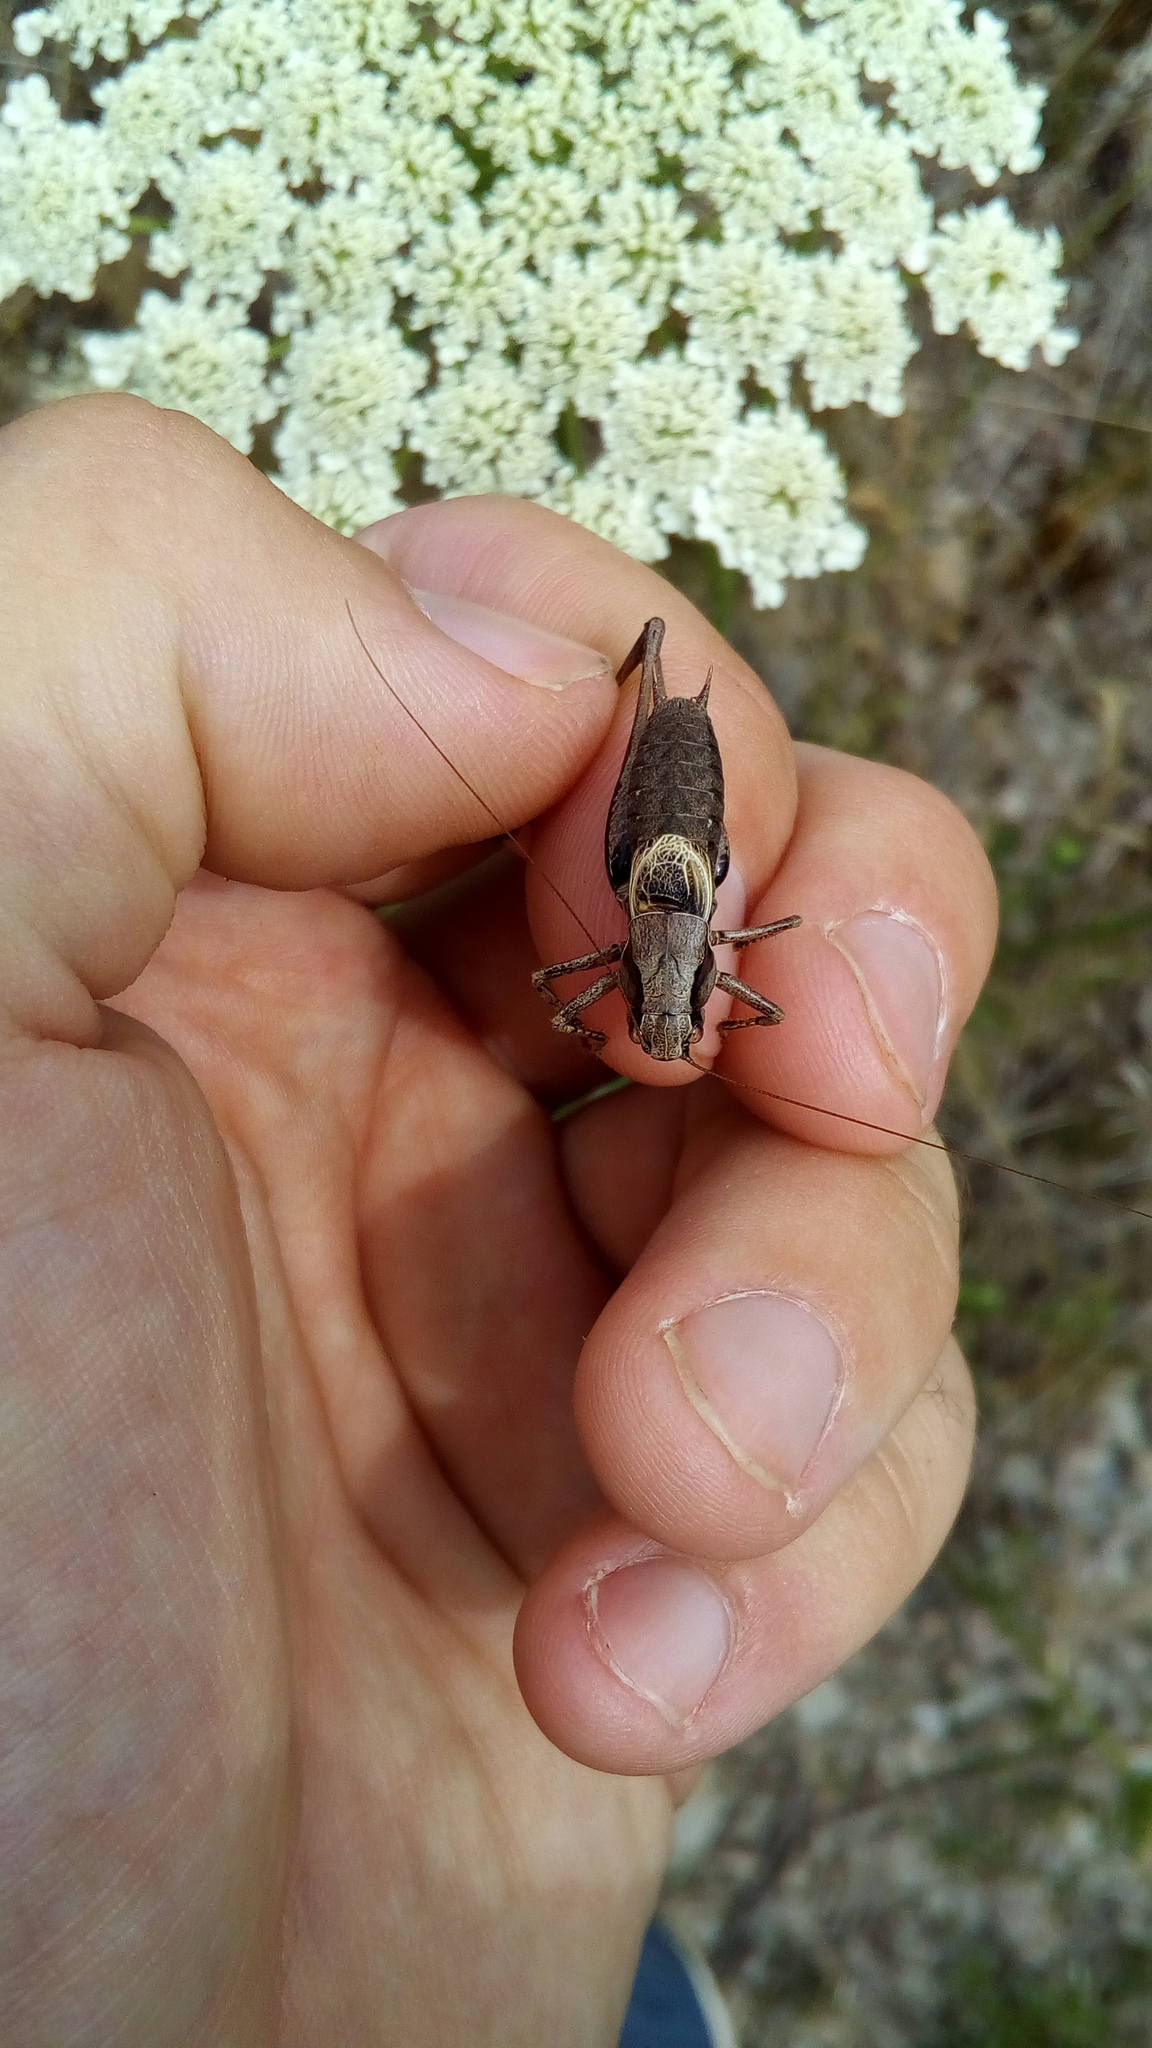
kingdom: Animalia
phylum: Arthropoda
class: Insecta
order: Orthoptera
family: Tettigoniidae
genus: Pholidoptera
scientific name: Pholidoptera griseoaptera
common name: Dark bush-cricket
